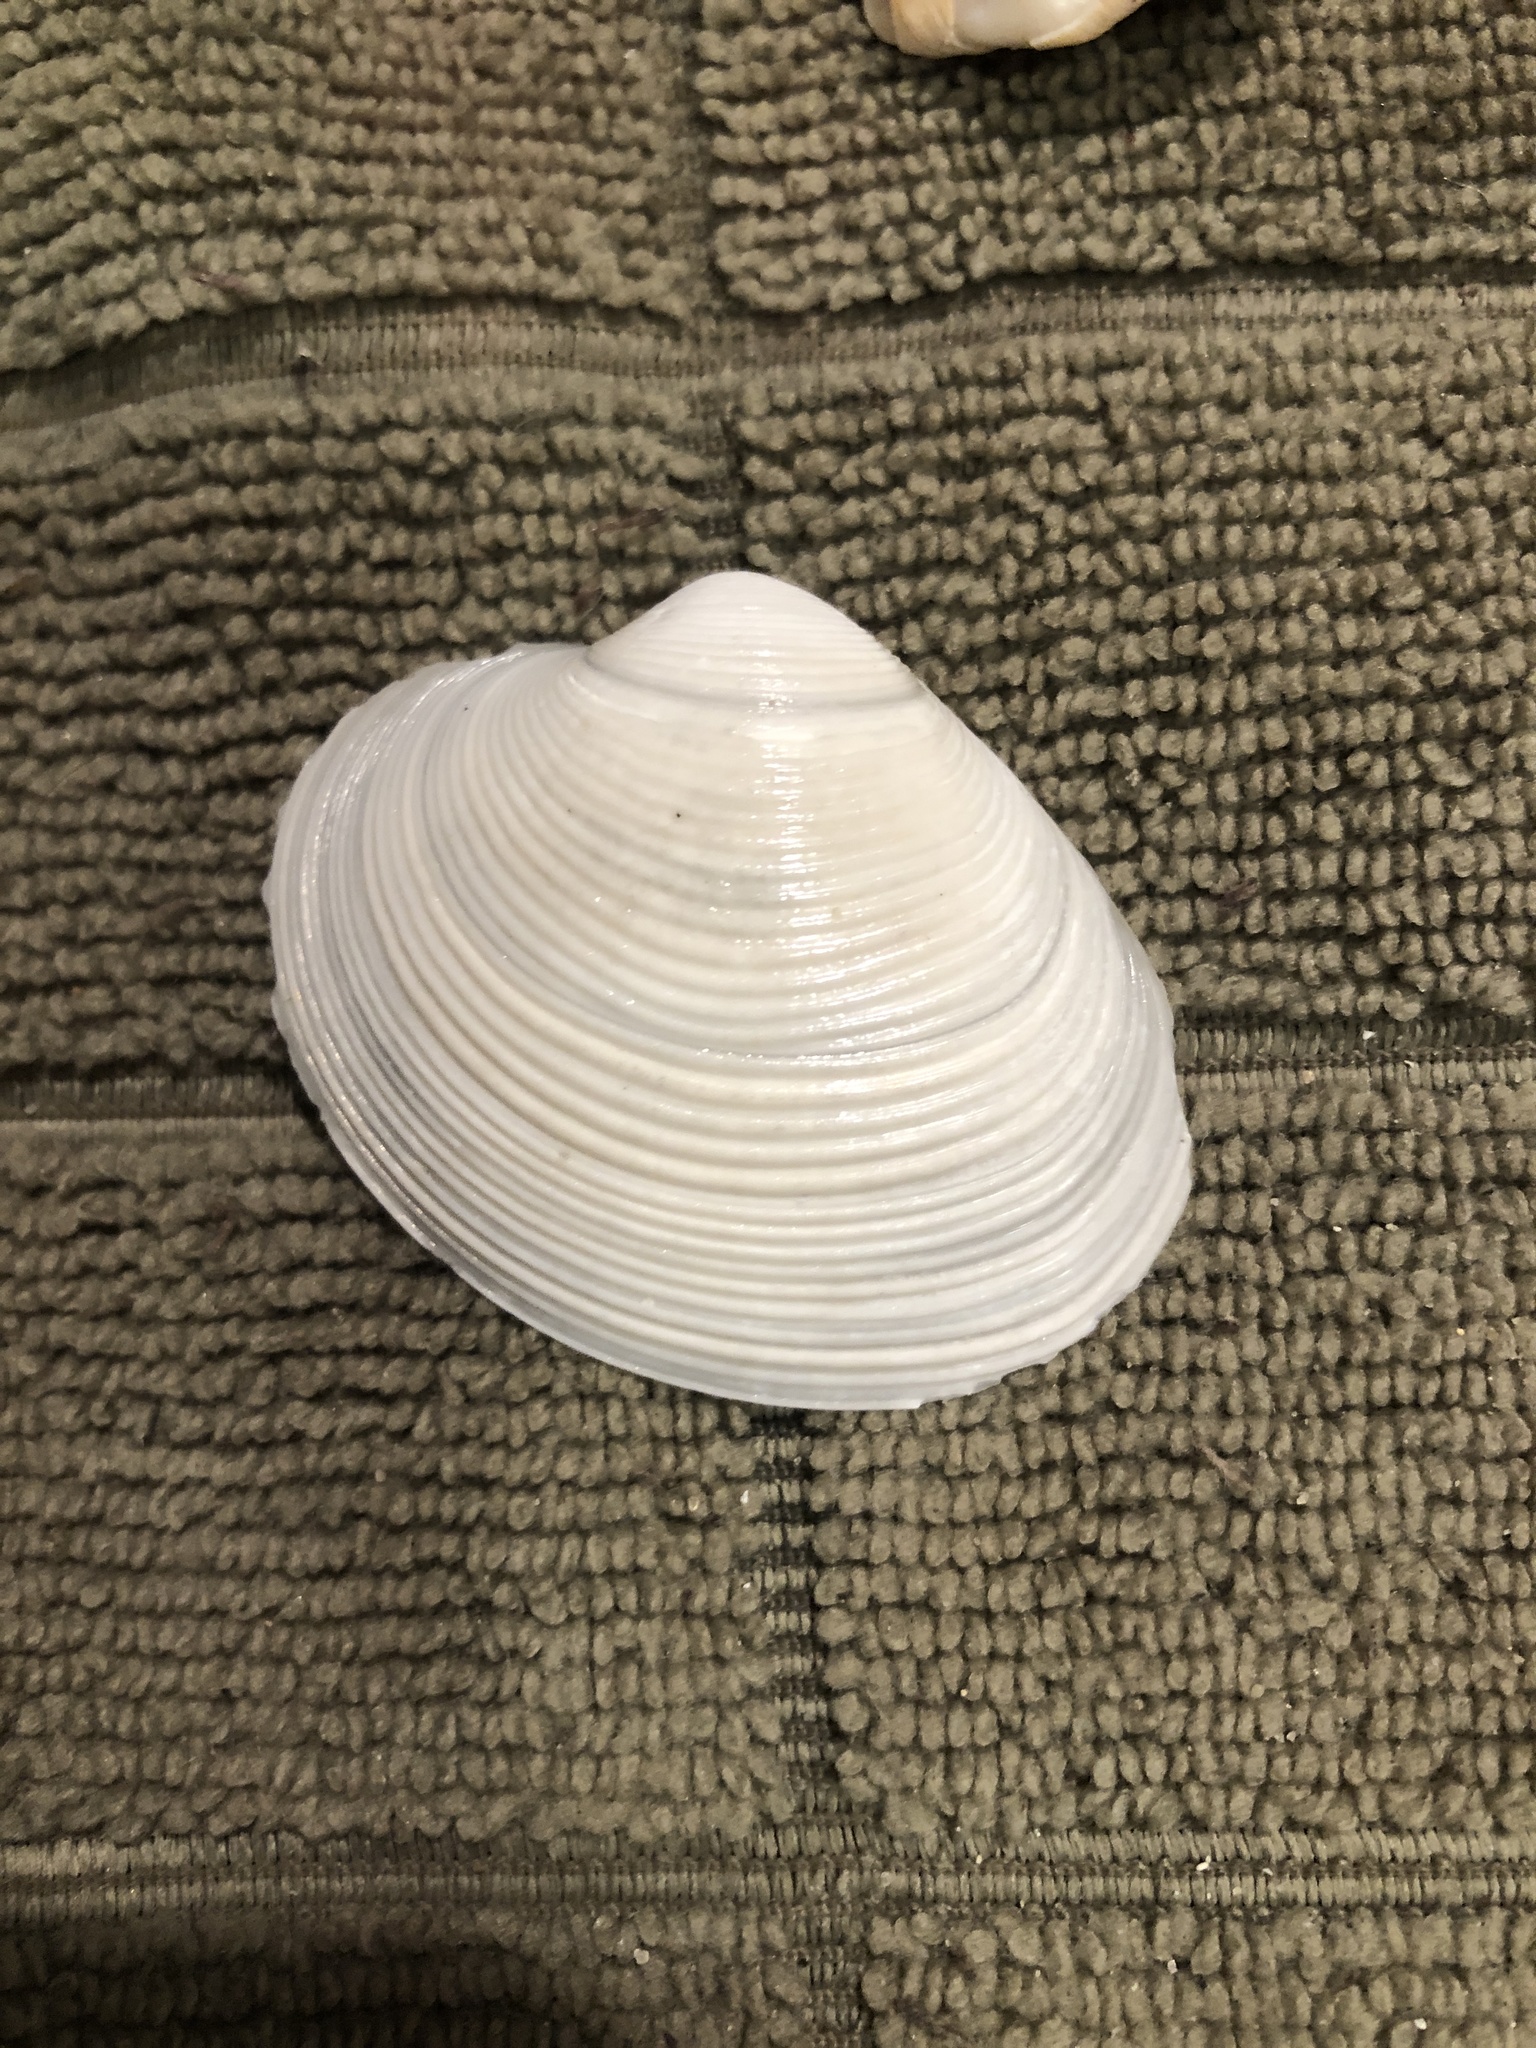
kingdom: Animalia
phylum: Mollusca
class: Bivalvia
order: Venerida
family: Veneridae
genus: Amiantis
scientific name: Amiantis callosa
